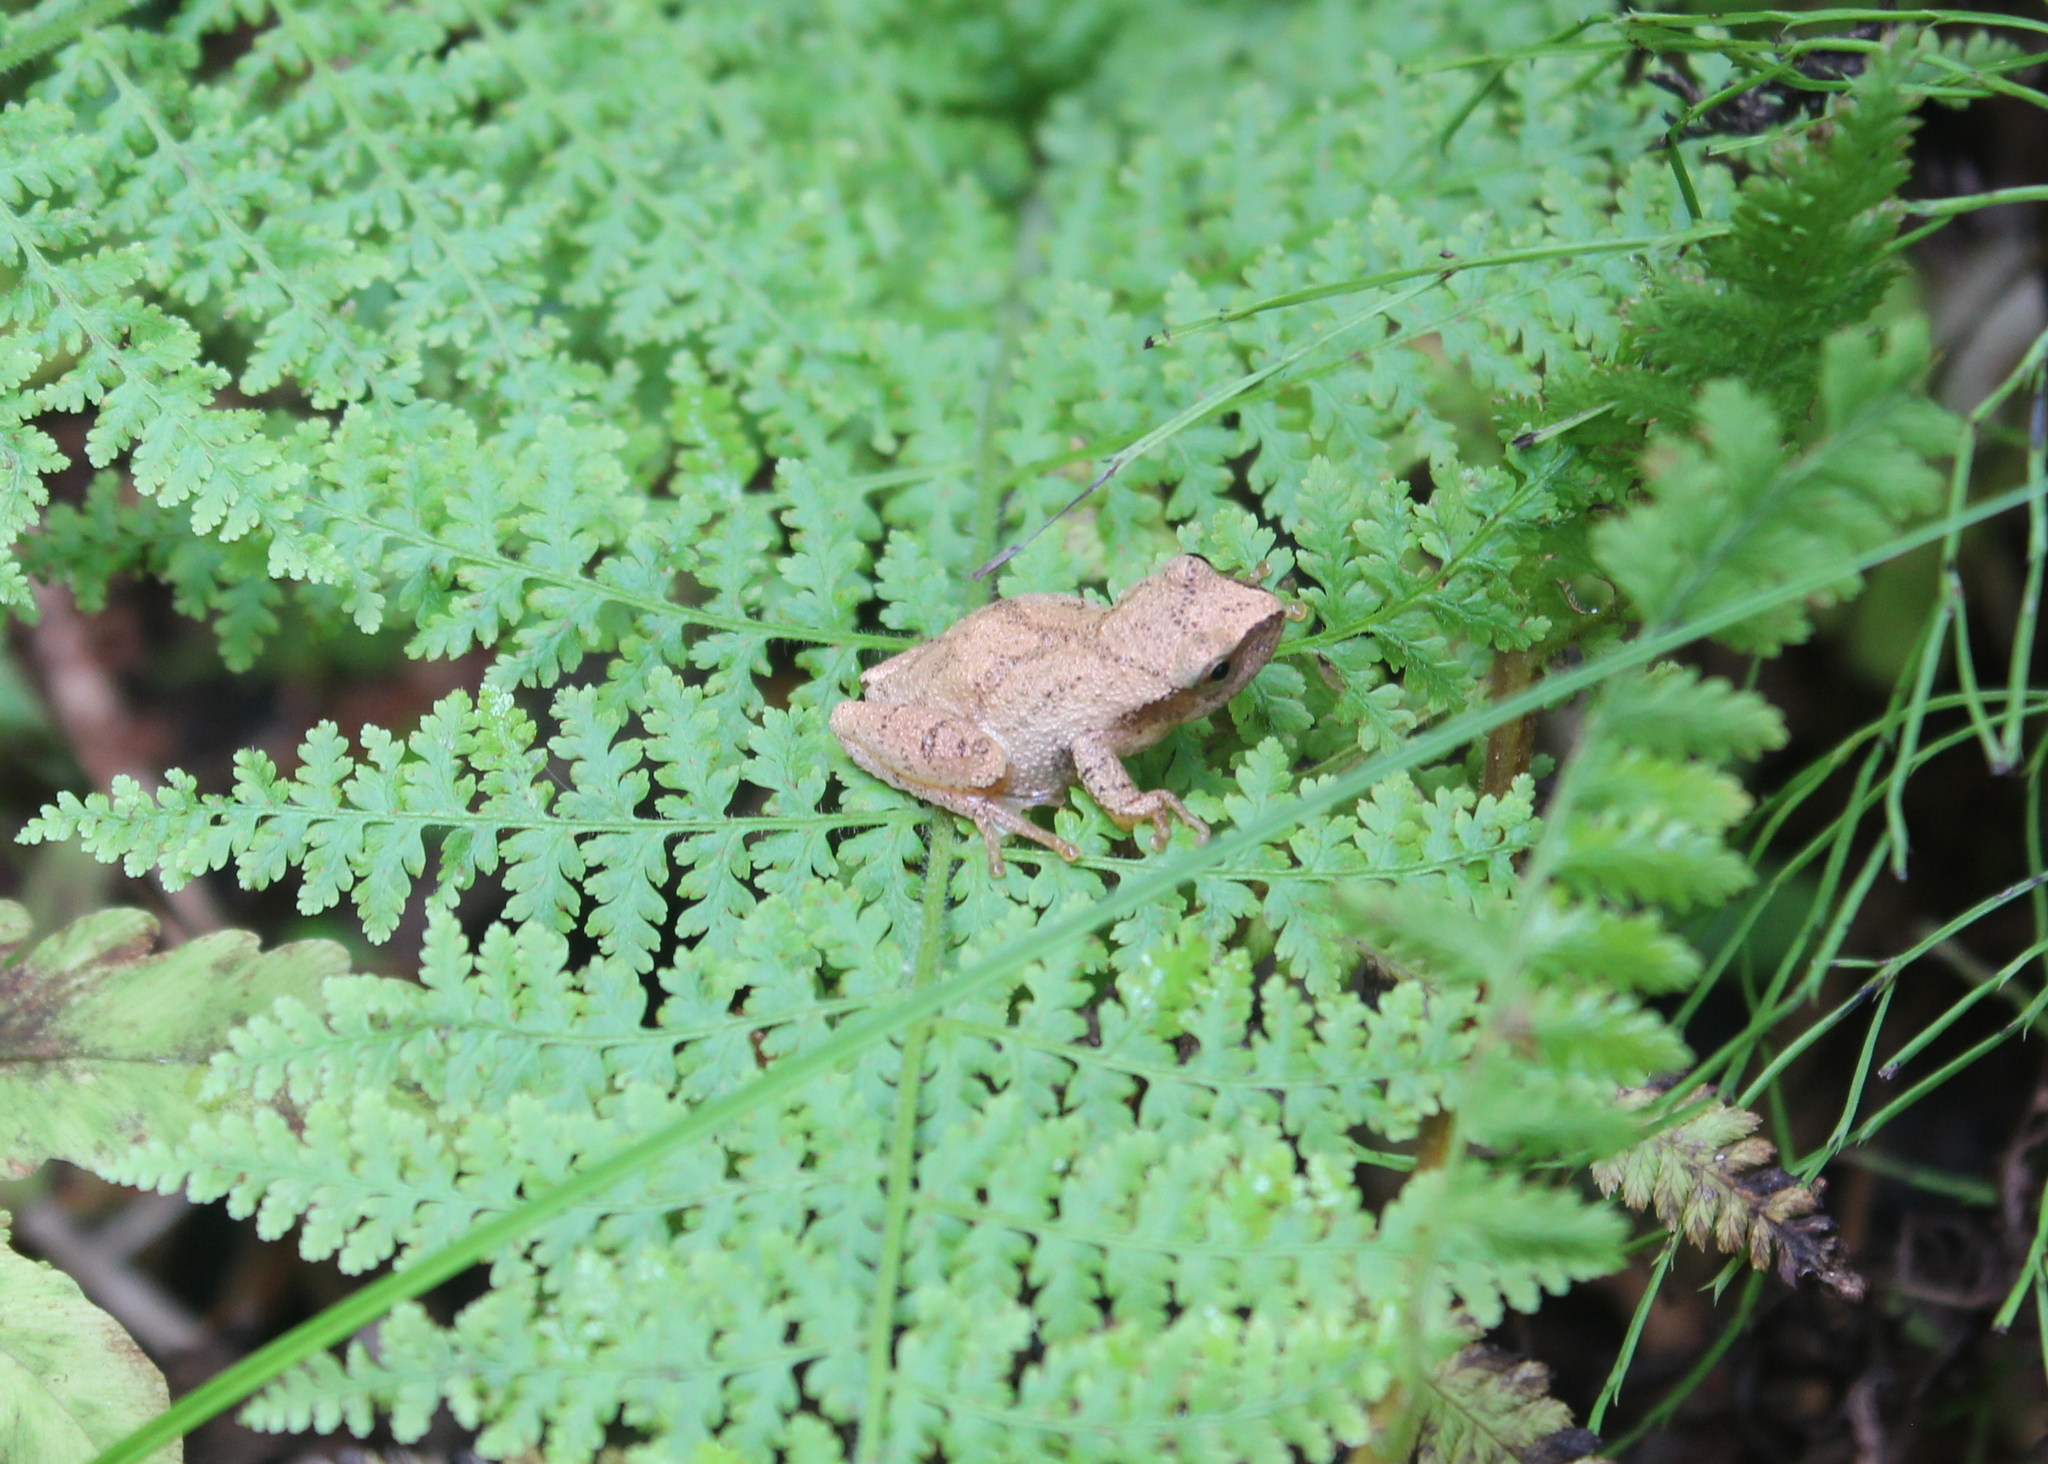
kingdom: Animalia
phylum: Chordata
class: Amphibia
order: Anura
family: Hylidae
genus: Pseudacris
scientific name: Pseudacris crucifer
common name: Spring peeper
